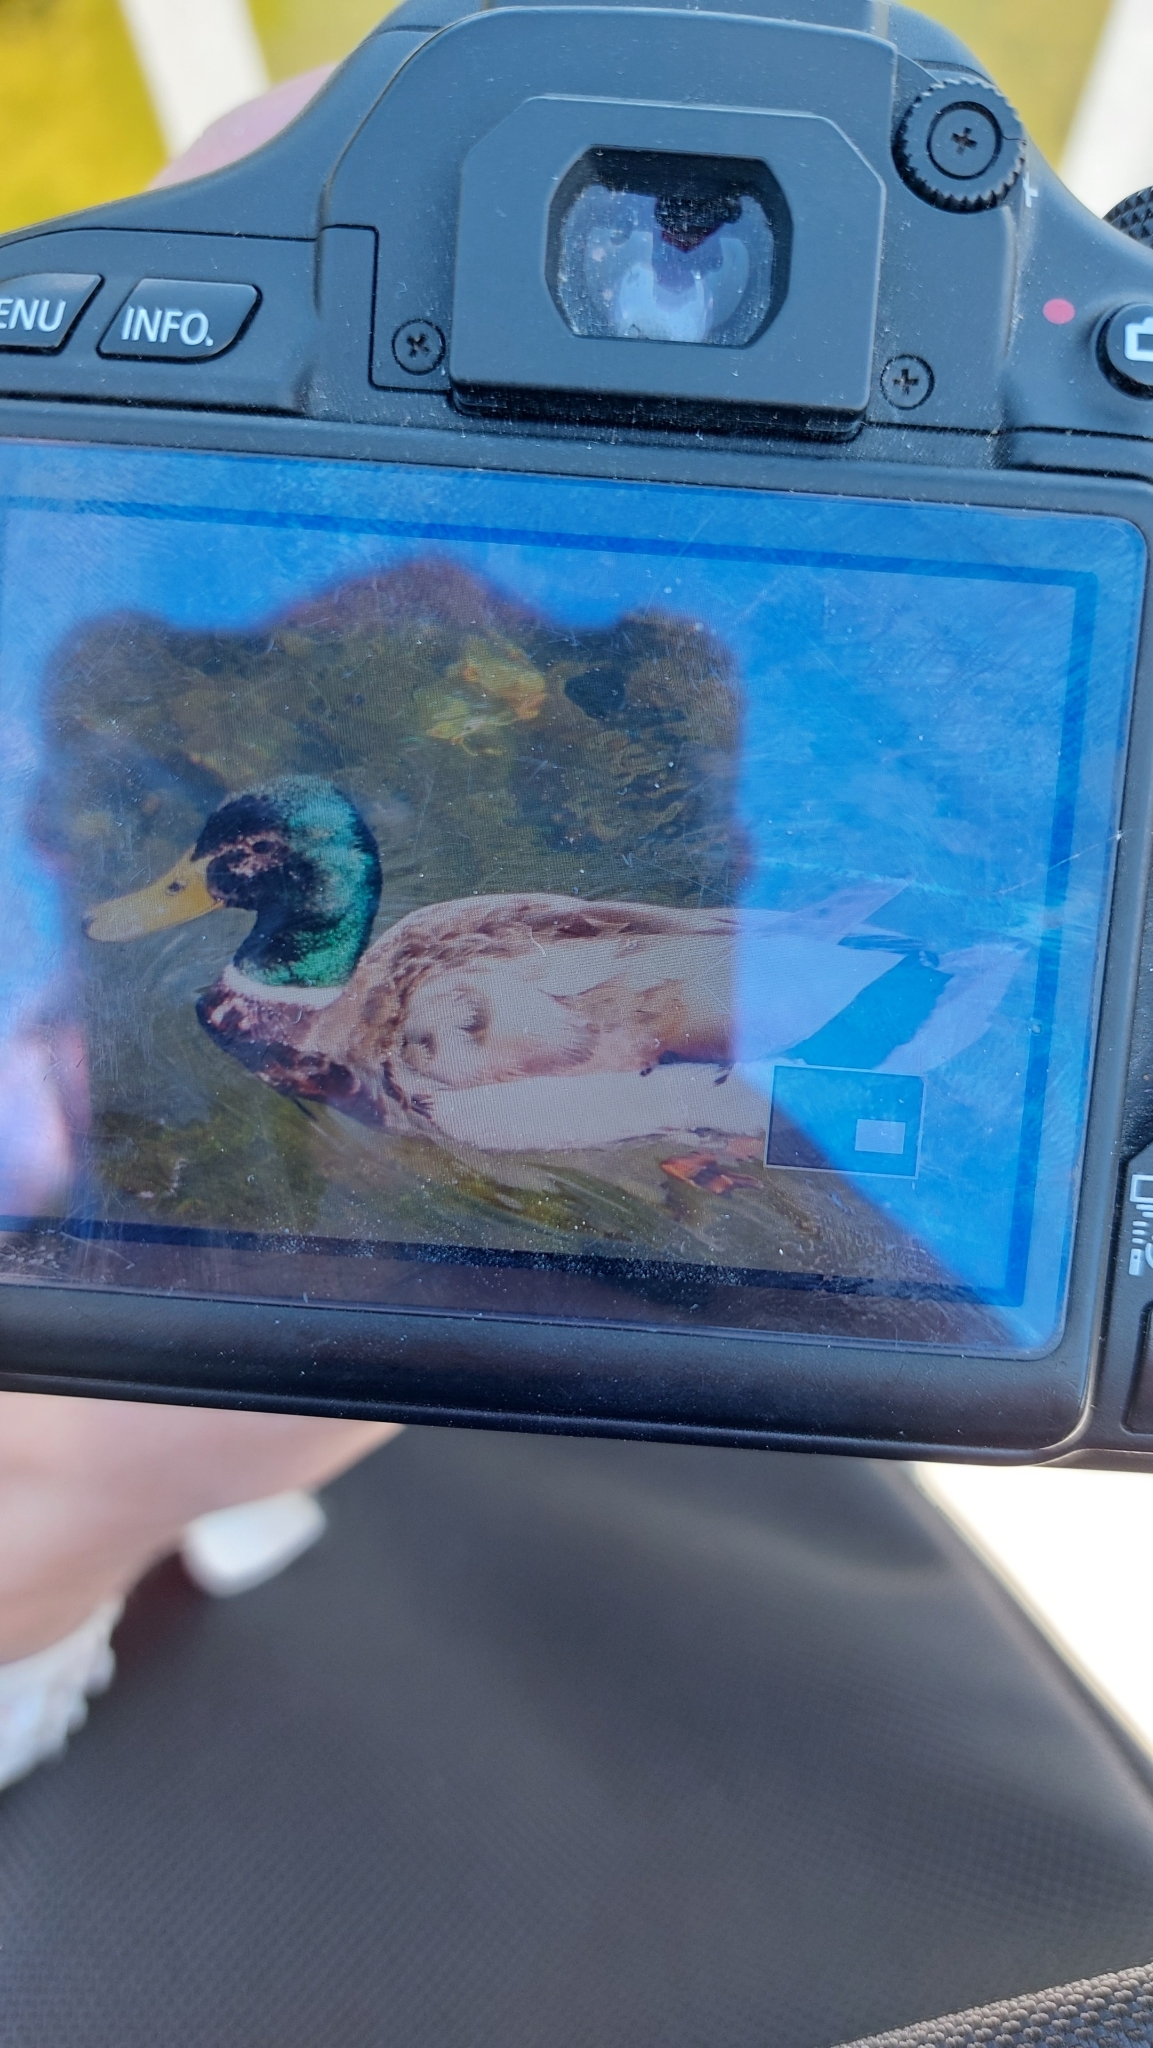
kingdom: Animalia
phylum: Chordata
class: Aves
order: Anseriformes
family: Anatidae
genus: Anas
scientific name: Anas platyrhynchos
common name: Mallard
